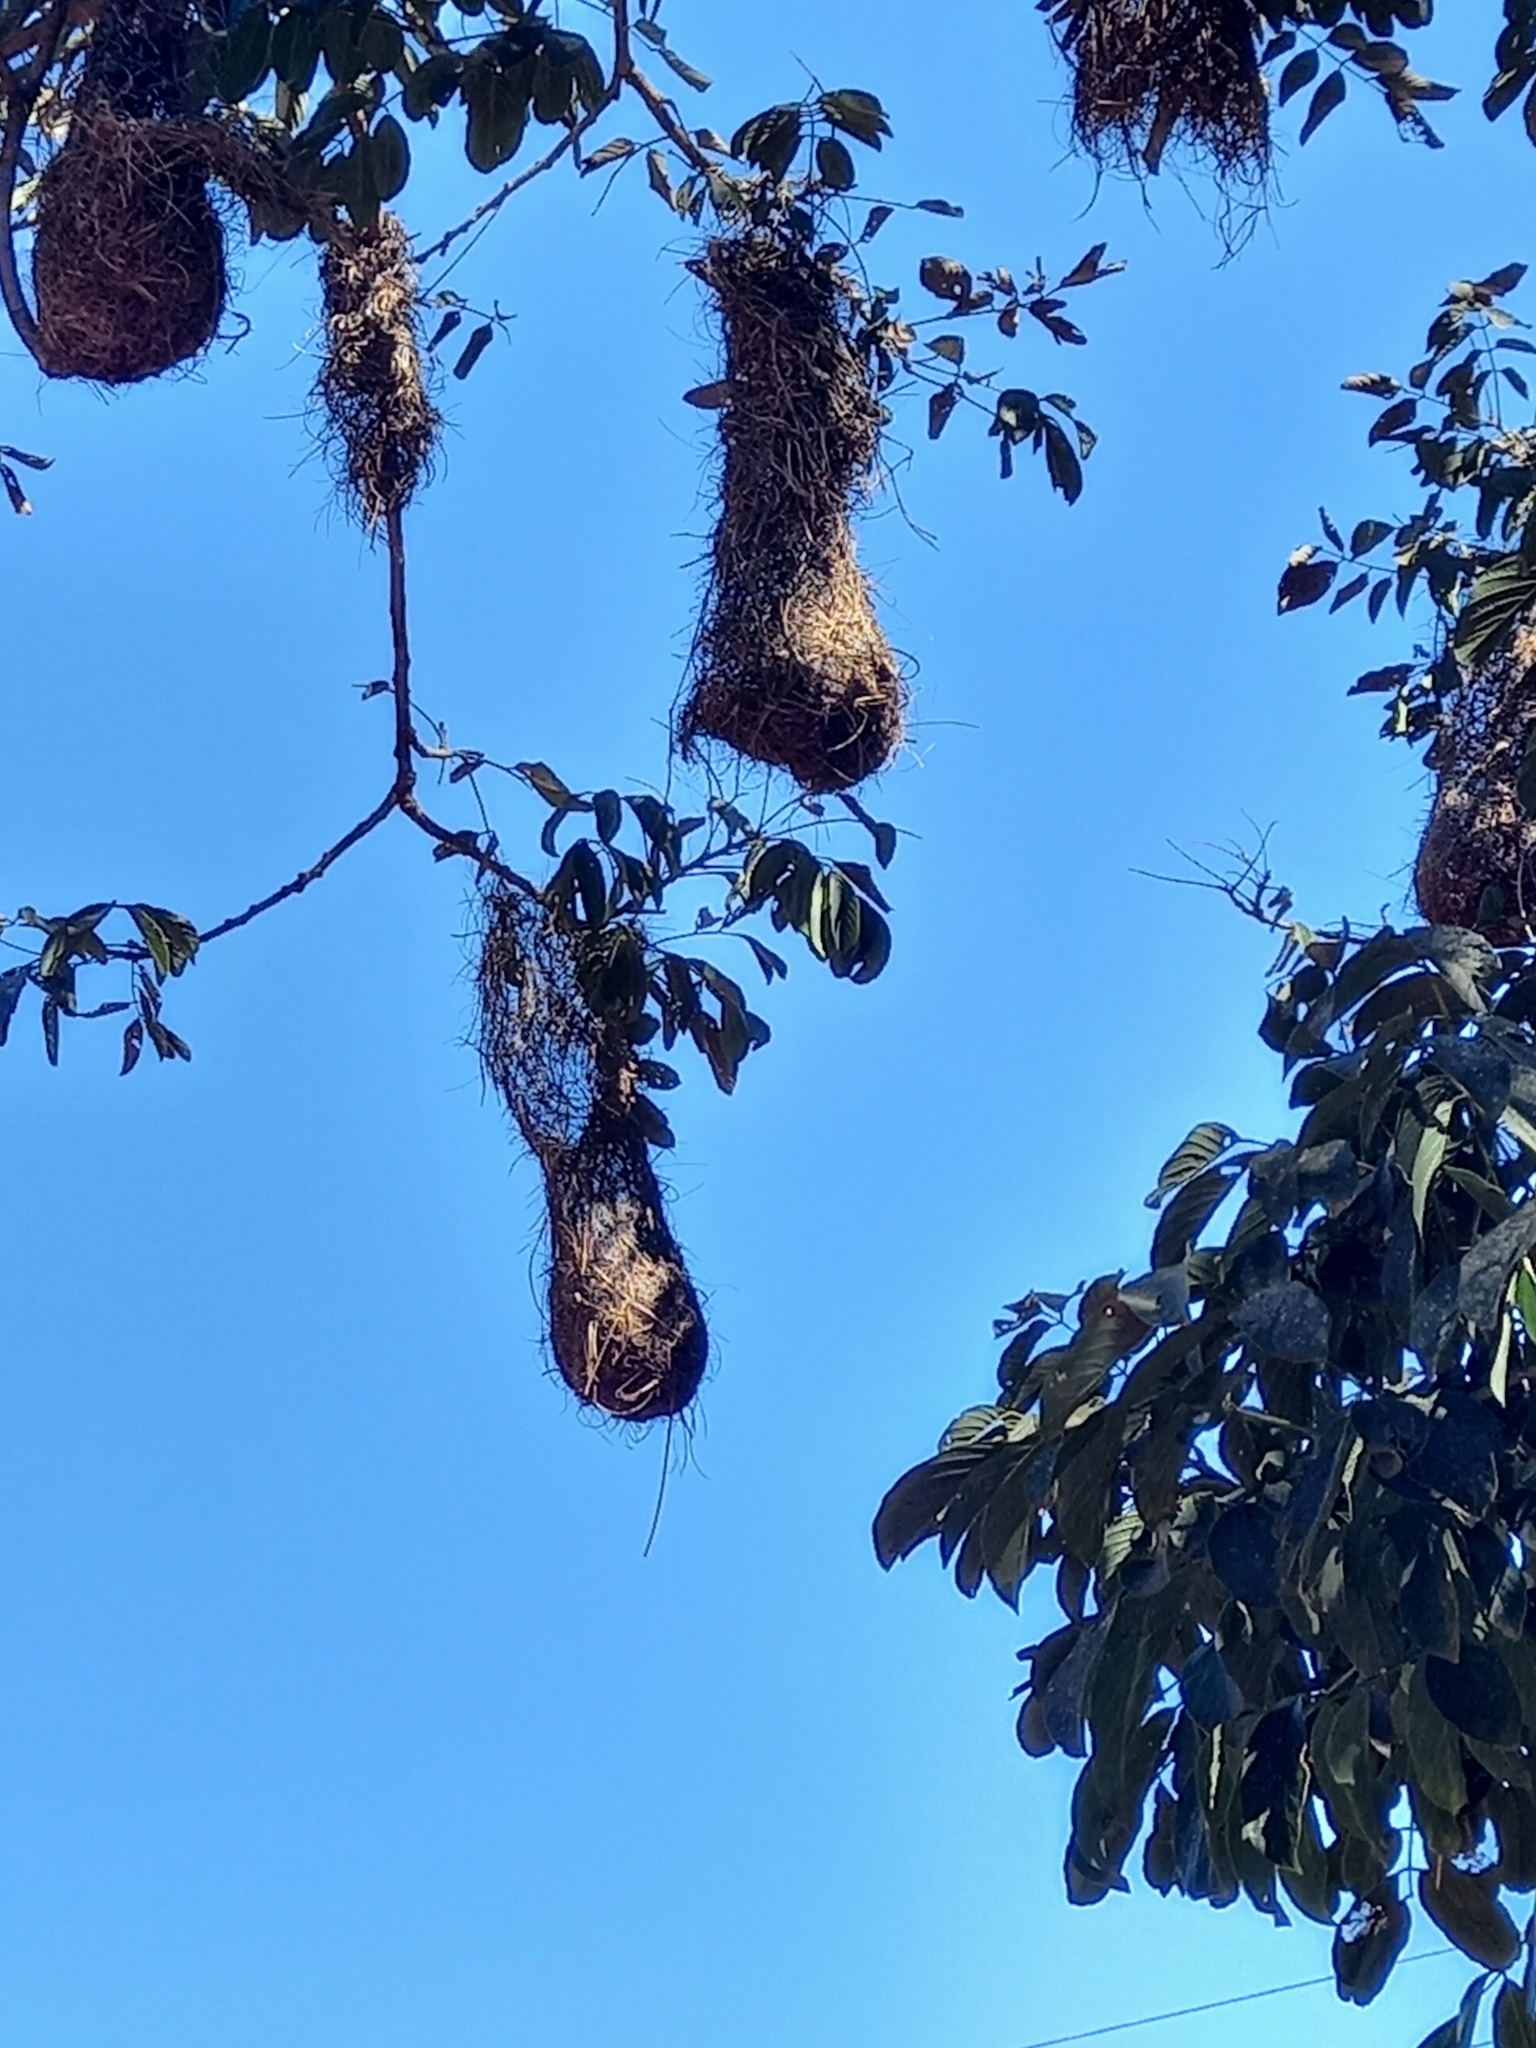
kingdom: Animalia
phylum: Chordata
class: Aves
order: Passeriformes
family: Icteridae
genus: Cacicus
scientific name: Cacicus haemorrhous
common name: Red-rumped cacique
